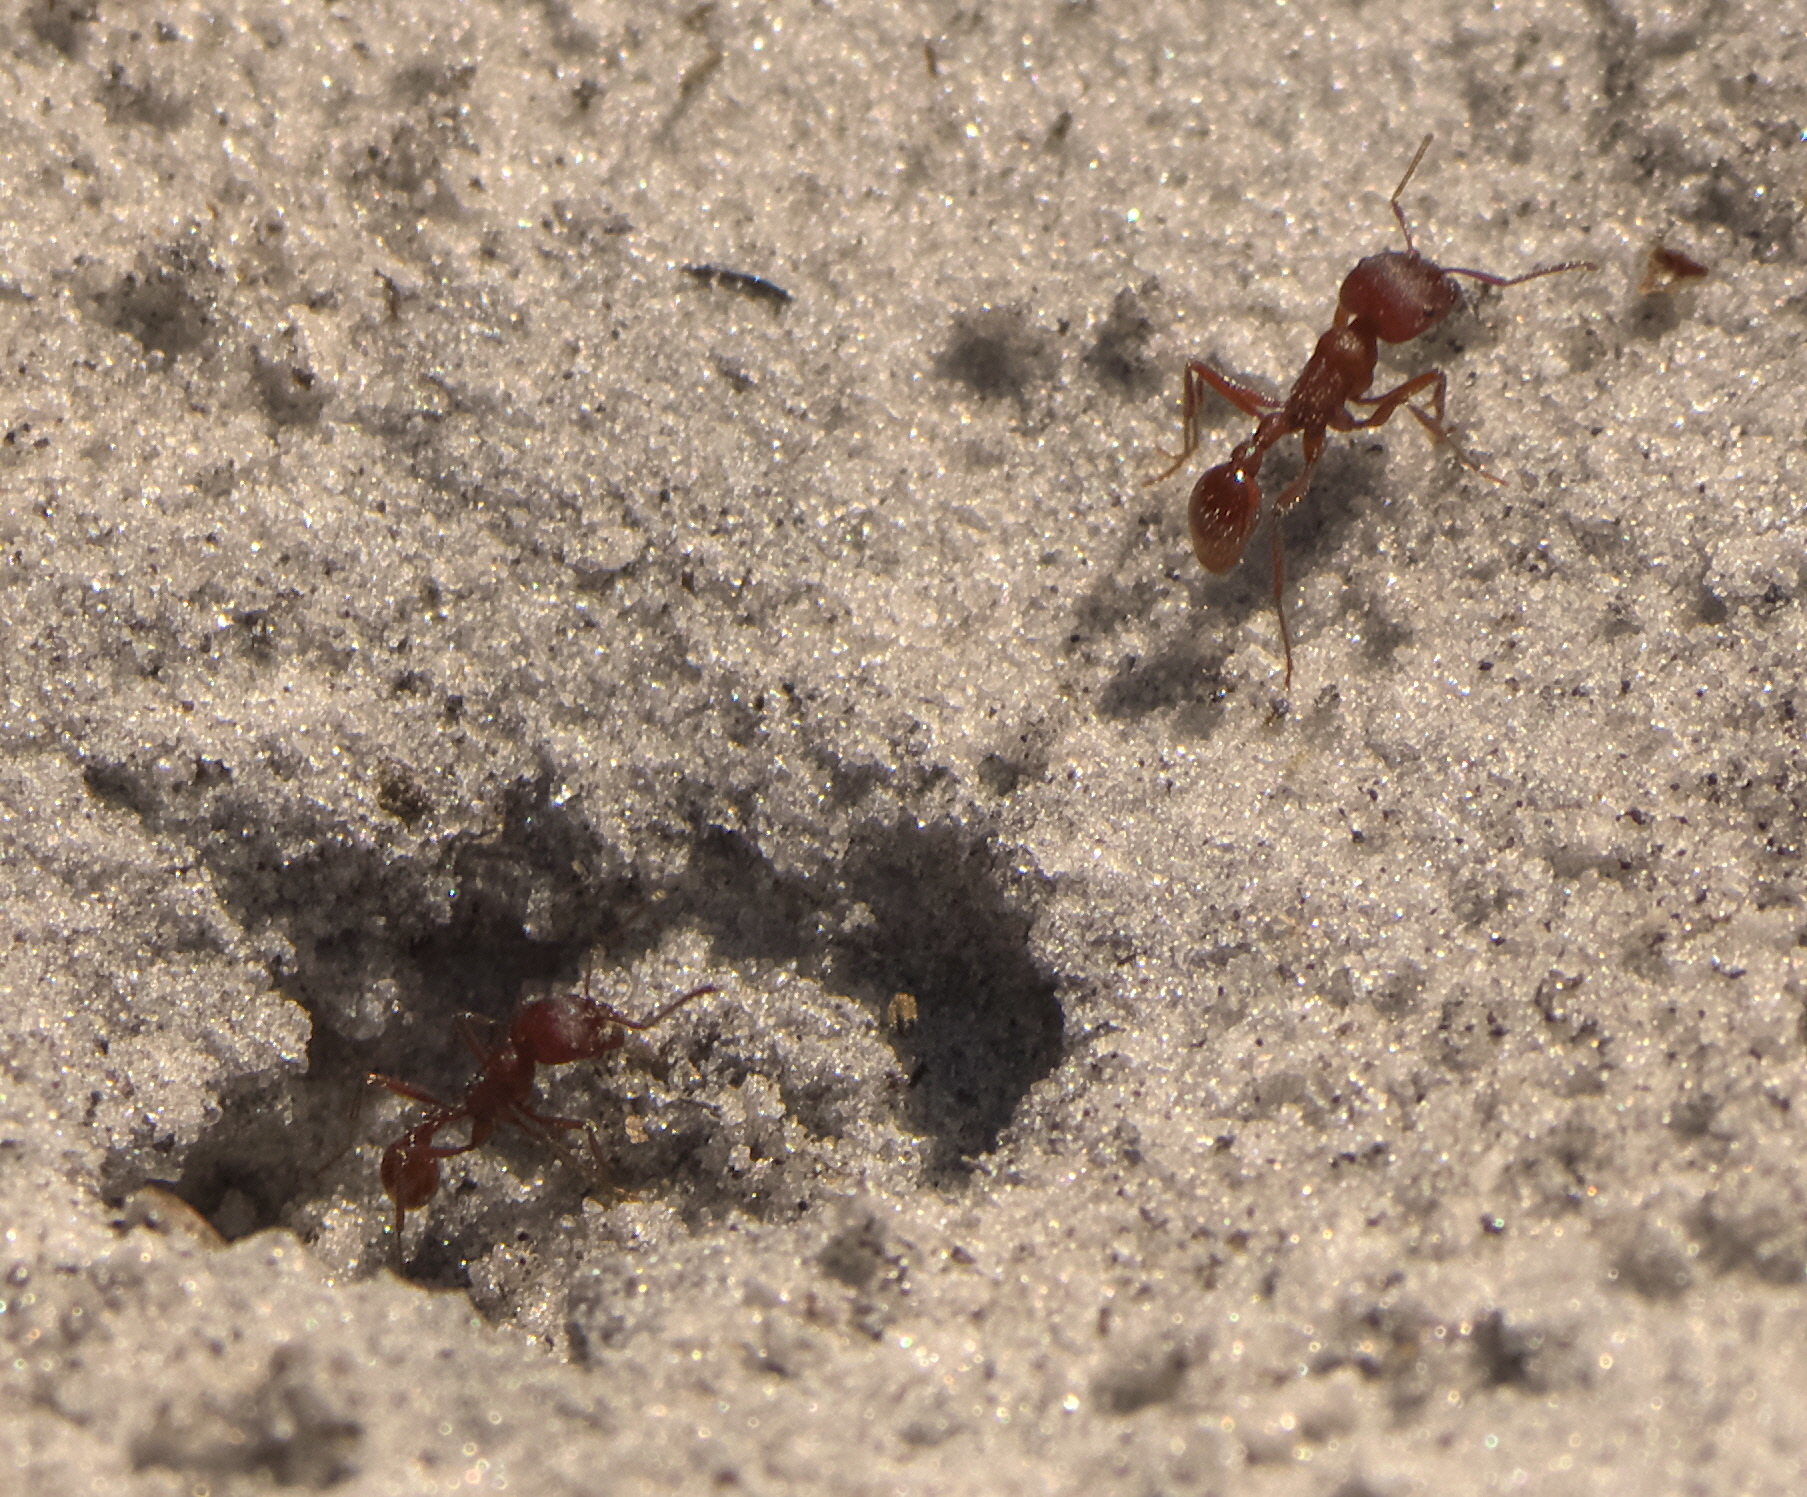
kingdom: Animalia
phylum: Arthropoda
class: Insecta
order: Hymenoptera
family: Formicidae
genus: Pogonomyrmex
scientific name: Pogonomyrmex badius
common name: Florida harvester ant
